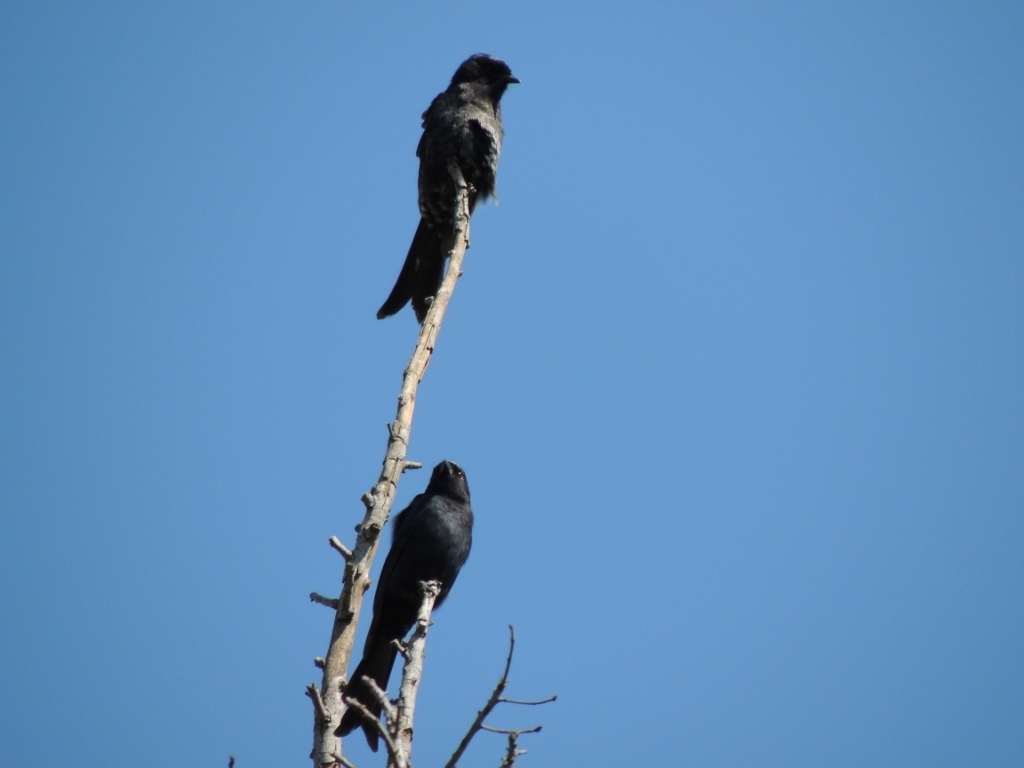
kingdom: Animalia
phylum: Chordata
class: Aves
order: Passeriformes
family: Dicruridae
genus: Dicrurus
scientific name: Dicrurus adsimilis
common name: Fork-tailed drongo
